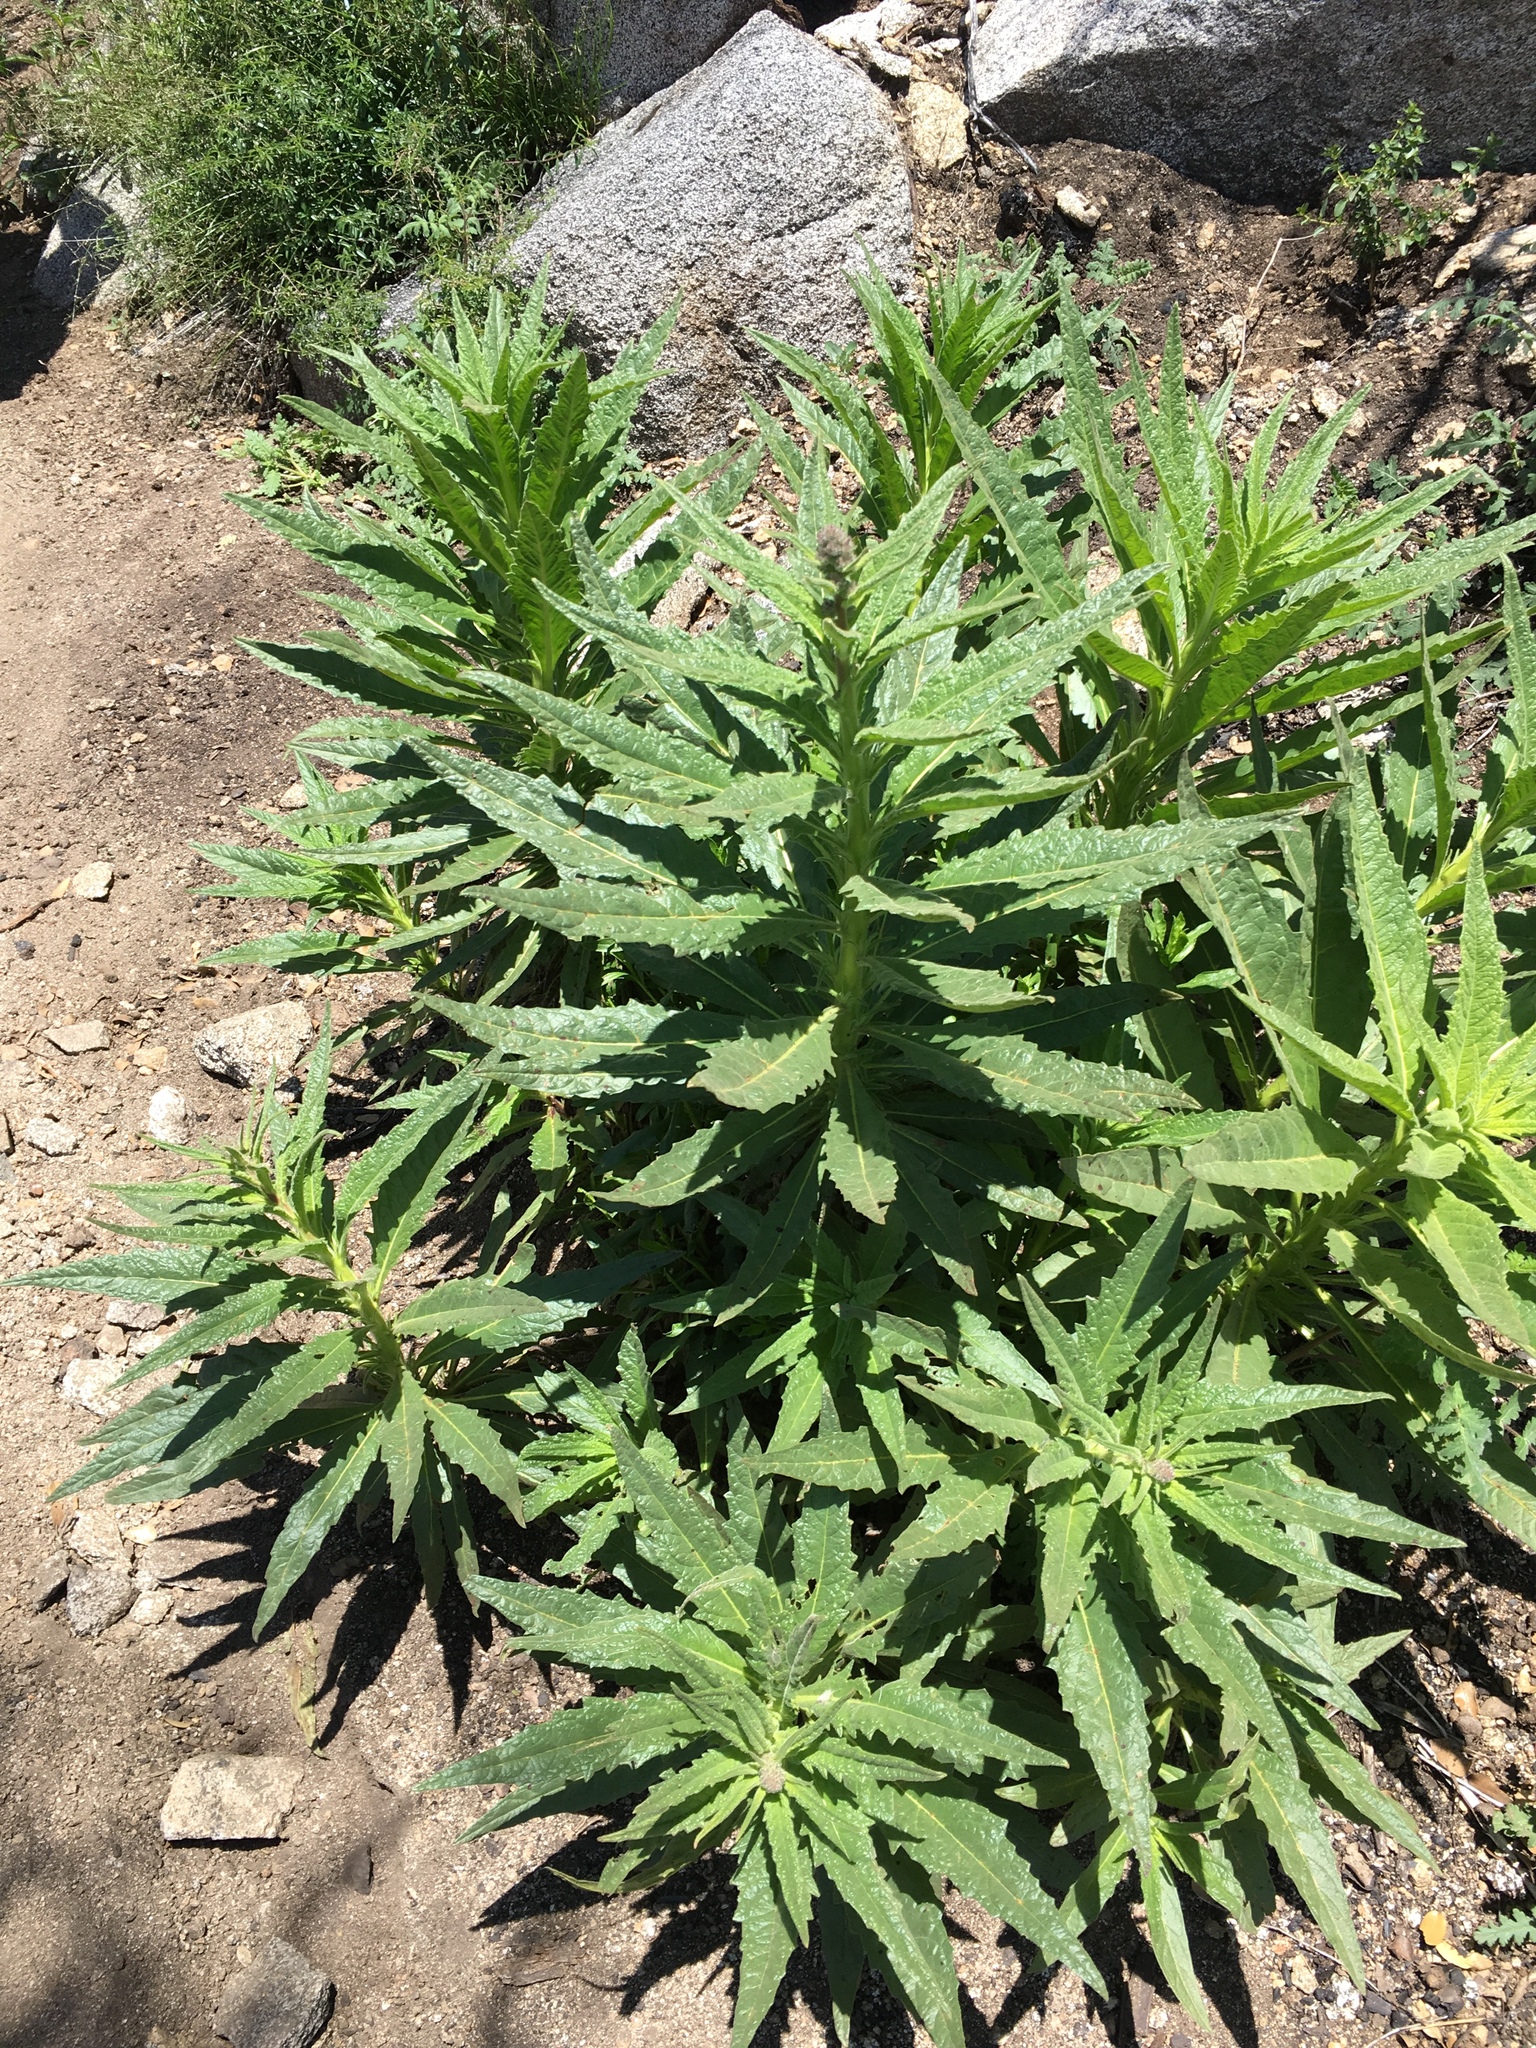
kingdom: Plantae
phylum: Tracheophyta
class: Magnoliopsida
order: Boraginales
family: Namaceae
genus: Turricula
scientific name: Turricula parryi
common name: Poodle-dog-bush
